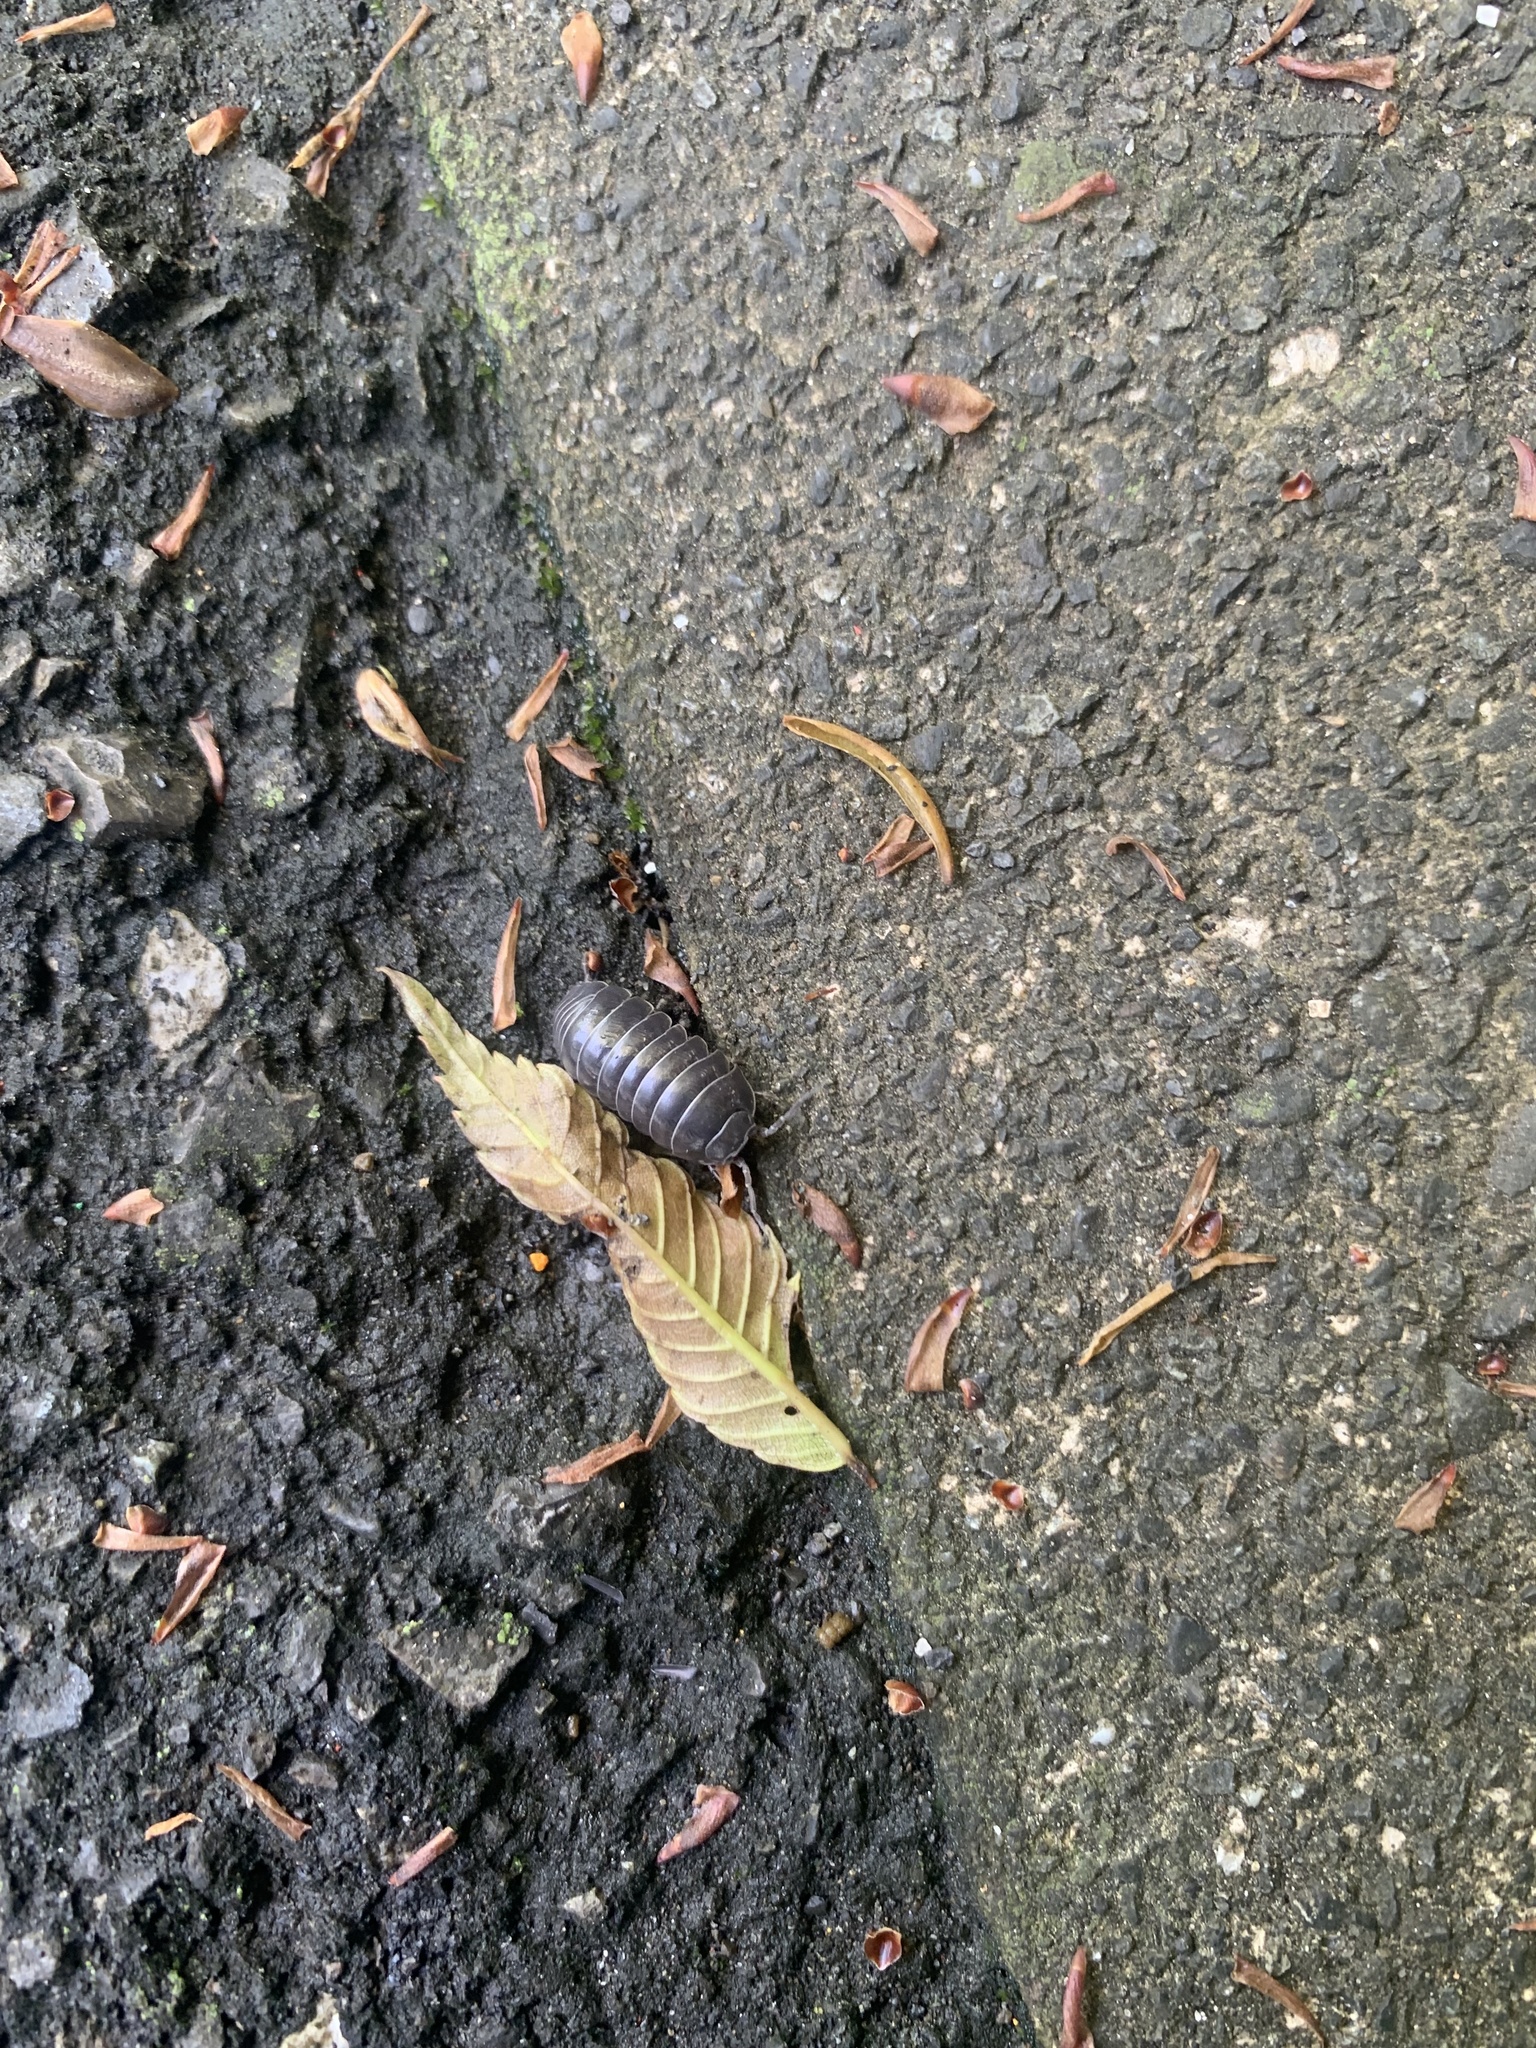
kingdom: Animalia
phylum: Arthropoda
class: Malacostraca
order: Isopoda
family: Armadillidiidae
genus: Armadillidium
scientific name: Armadillidium vulgare
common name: Common pill woodlouse
